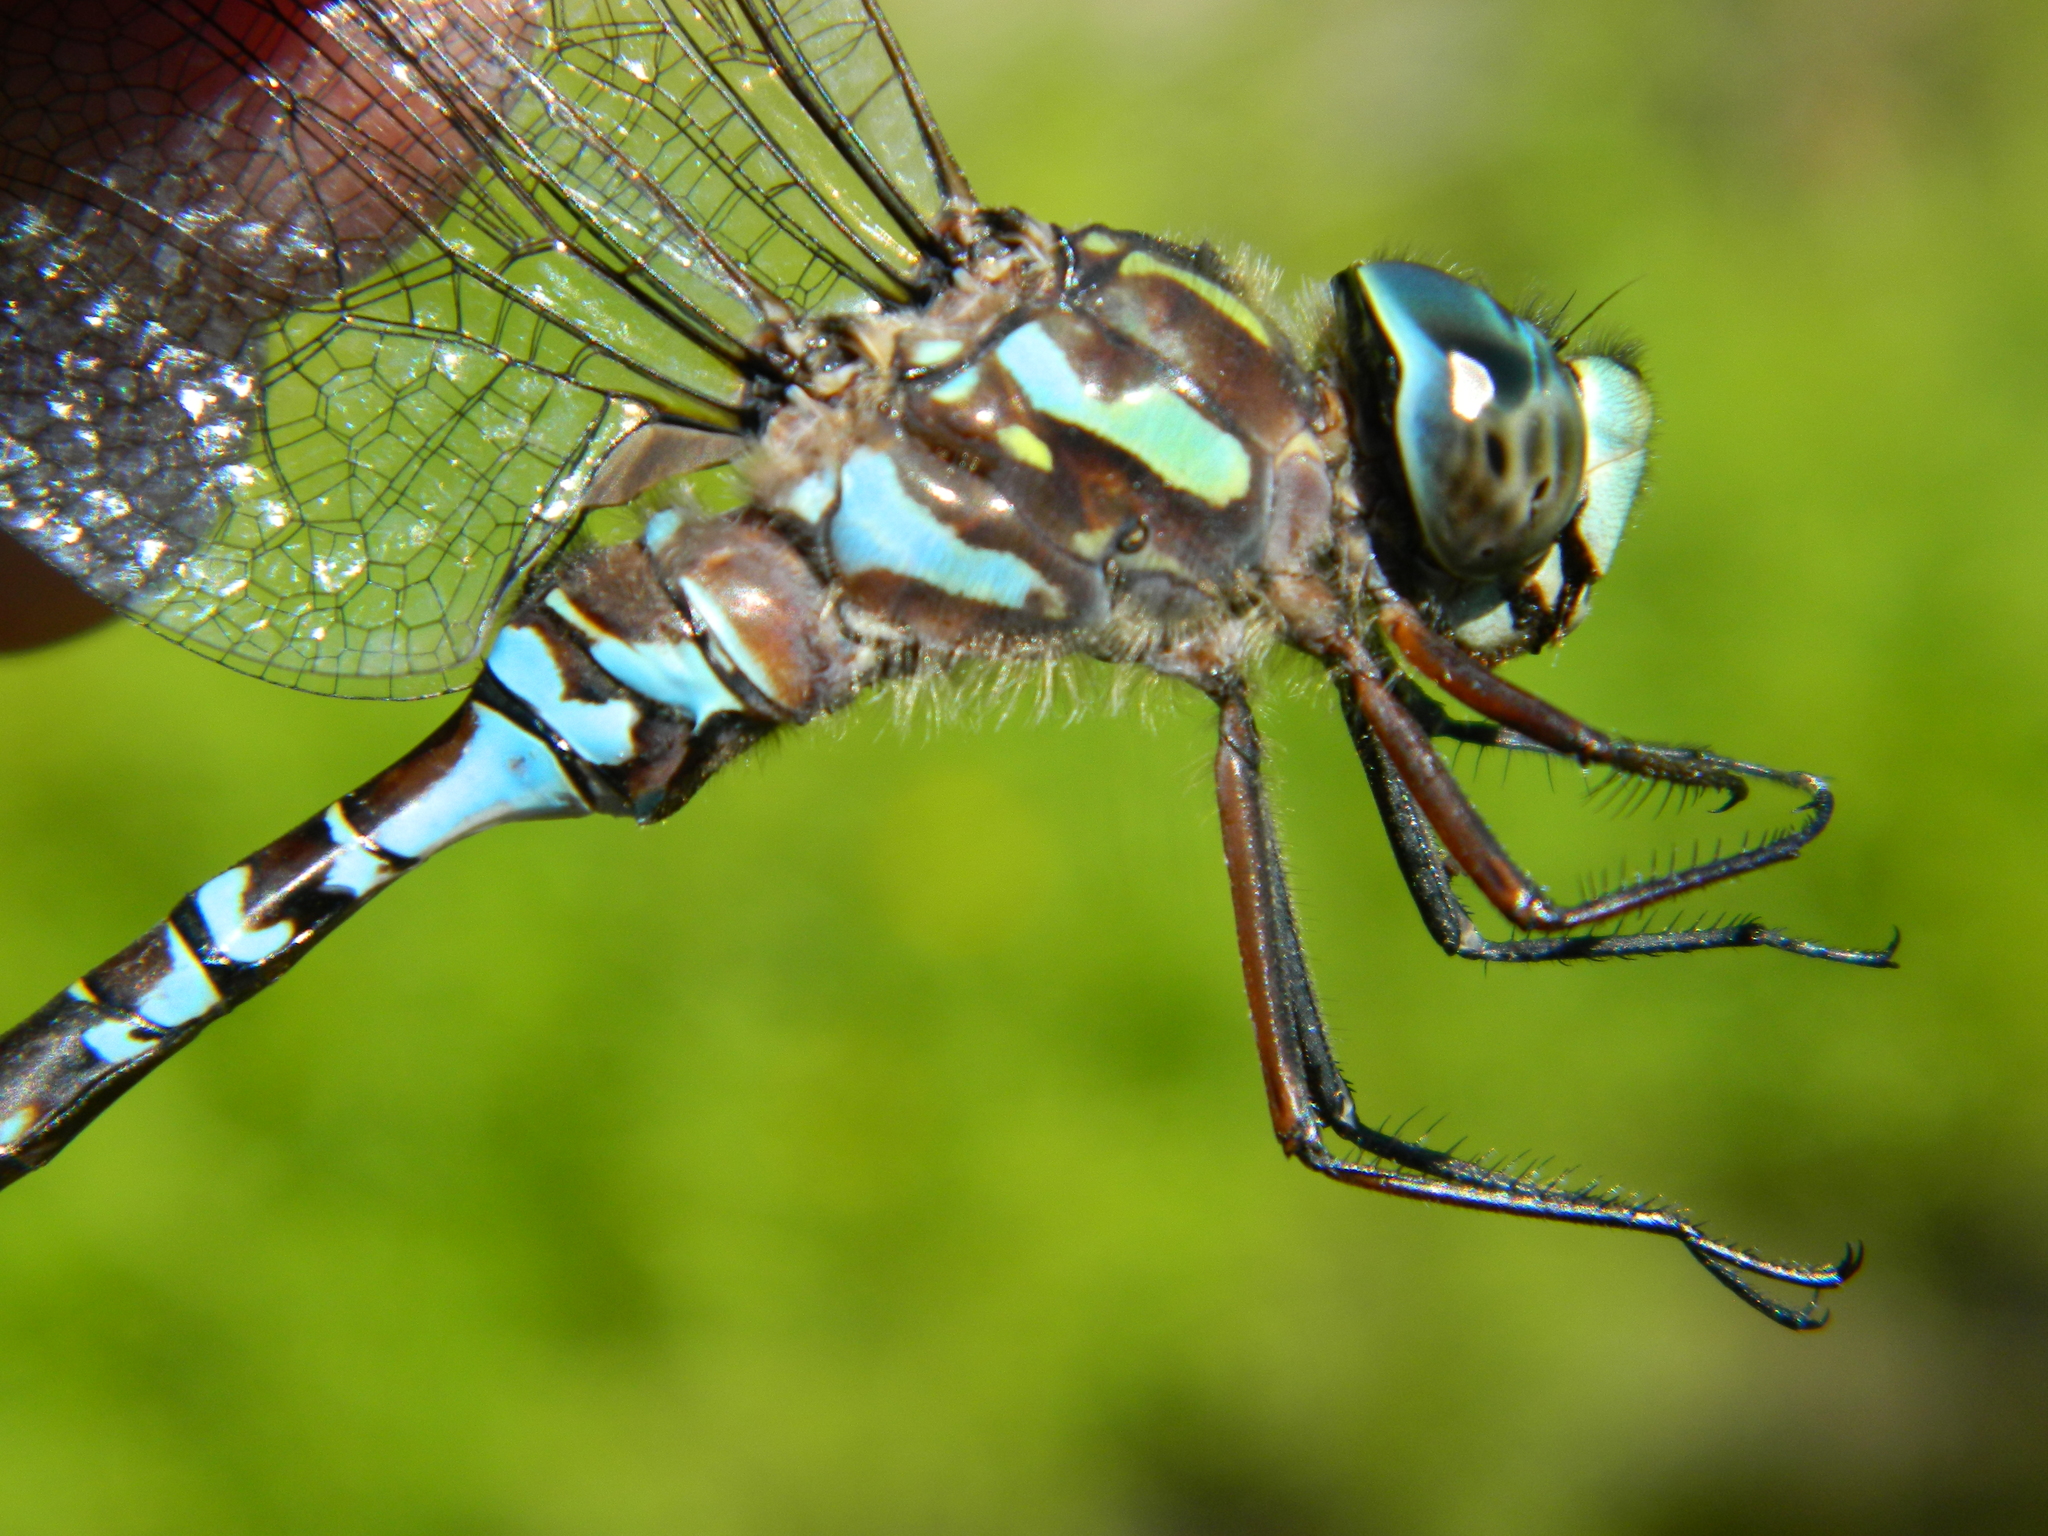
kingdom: Animalia
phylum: Arthropoda
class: Insecta
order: Odonata
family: Aeshnidae
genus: Aeshna
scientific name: Aeshna canadensis
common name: Canada darner
